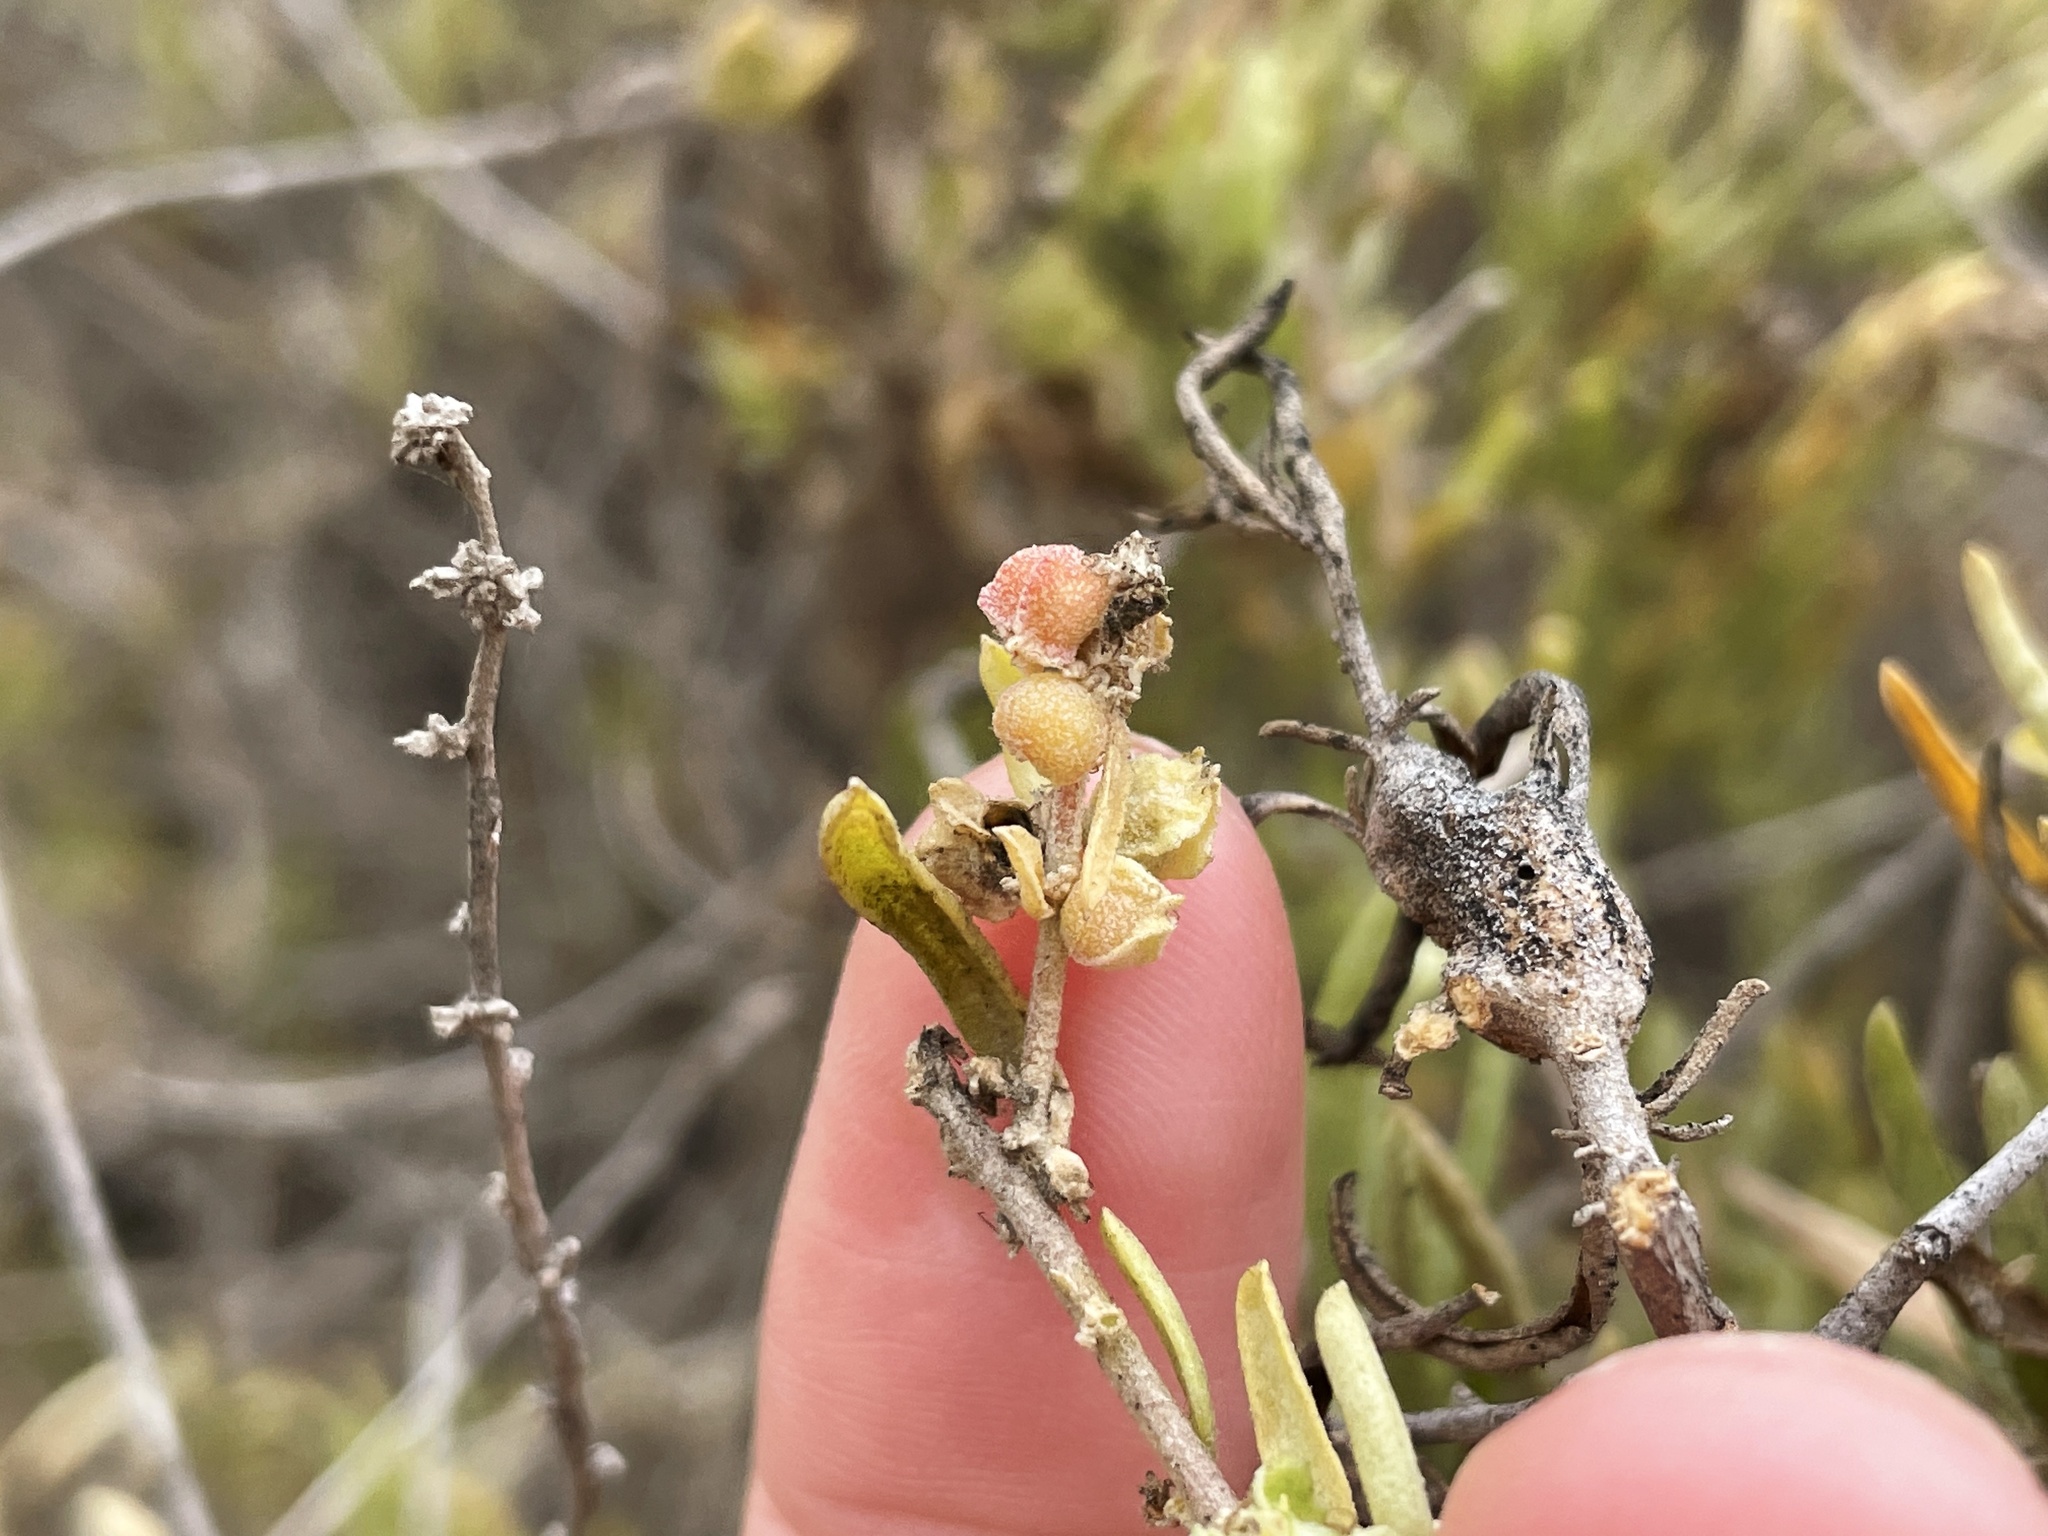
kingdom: Animalia
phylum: Arthropoda
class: Insecta
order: Diptera
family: Cecidomyiidae
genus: Asphondylia
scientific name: Asphondylia caudicis
